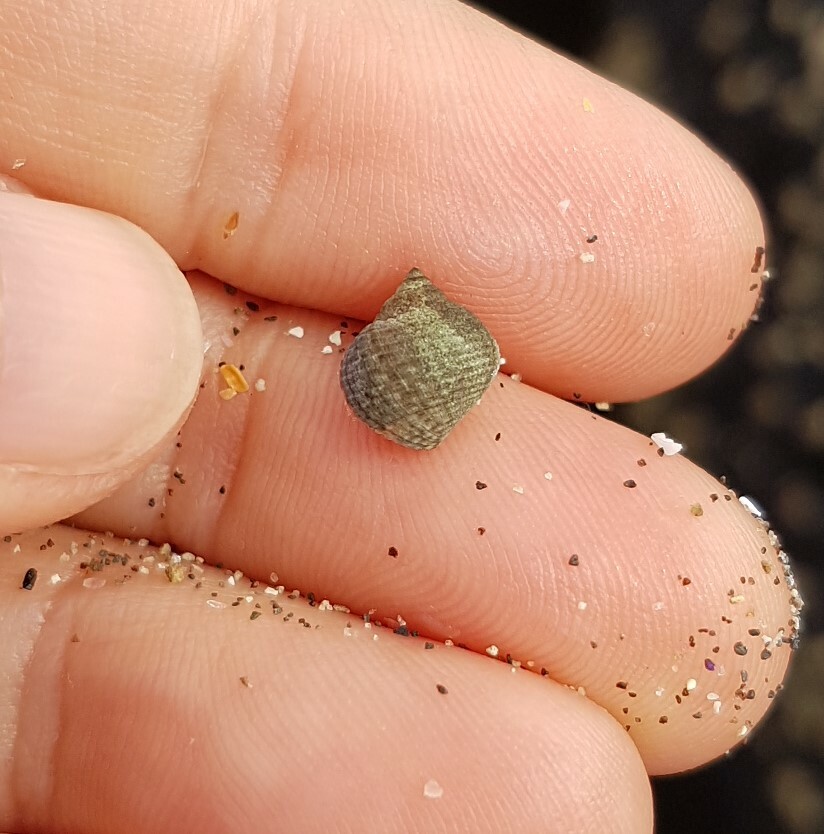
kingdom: Animalia
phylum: Mollusca
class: Gastropoda
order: Littorinimorpha
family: Littorinidae
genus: Tectarius
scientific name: Tectarius striatus
